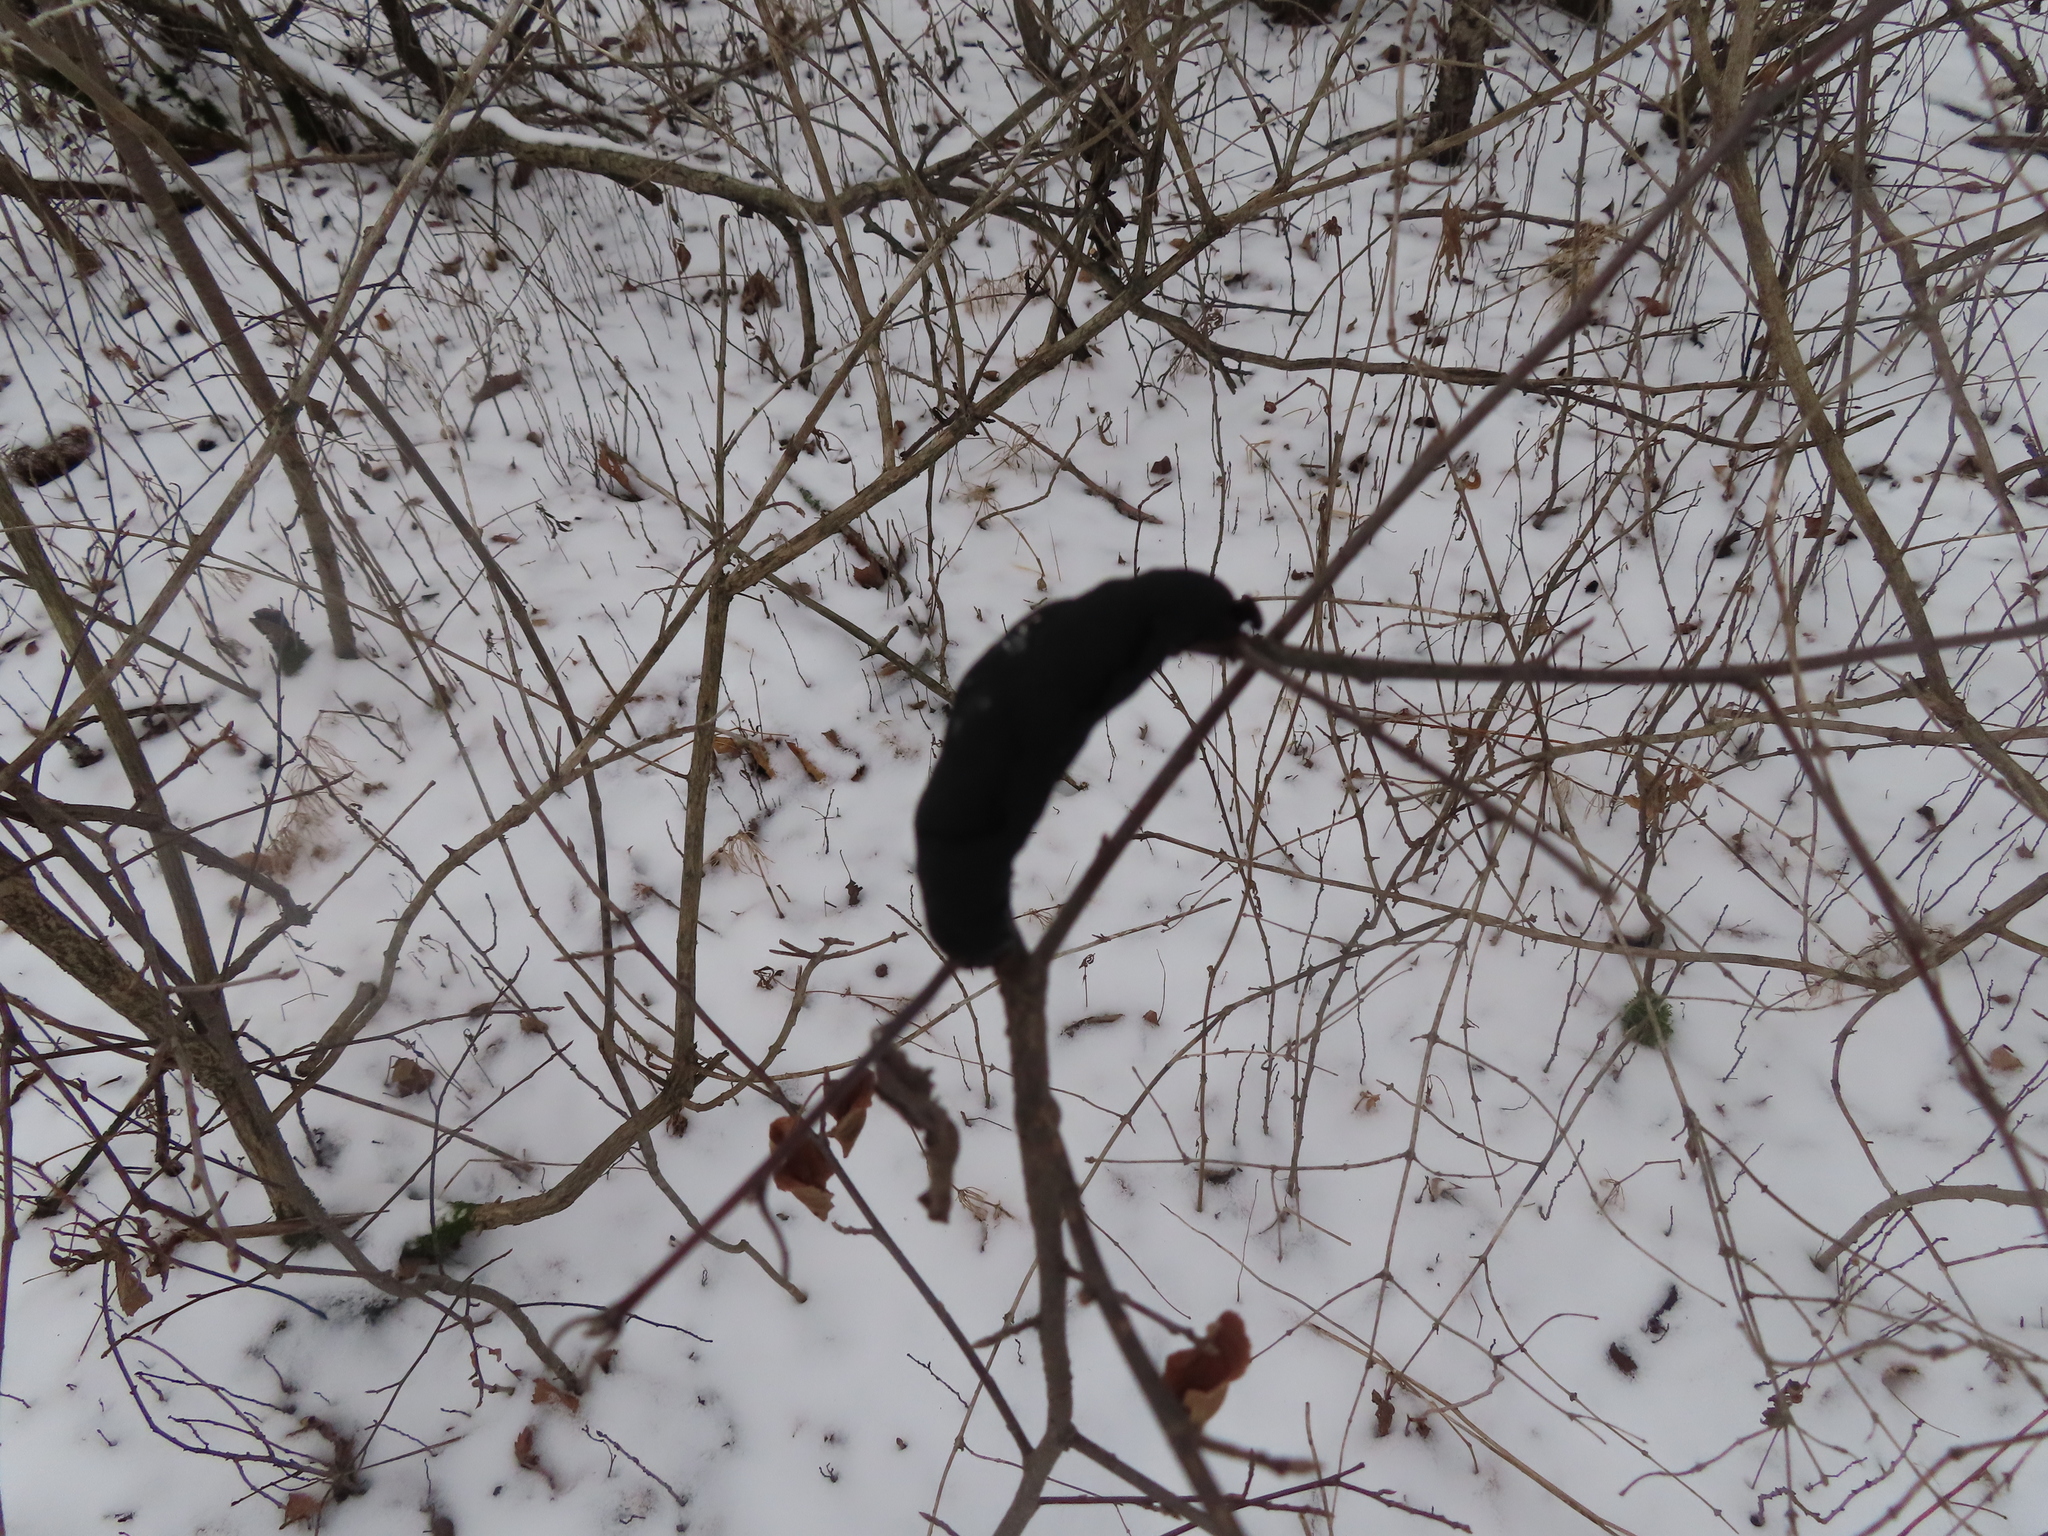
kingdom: Fungi
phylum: Ascomycota
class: Dothideomycetes
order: Venturiales
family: Venturiaceae
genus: Apiosporina
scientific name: Apiosporina morbosa
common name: Black knot
